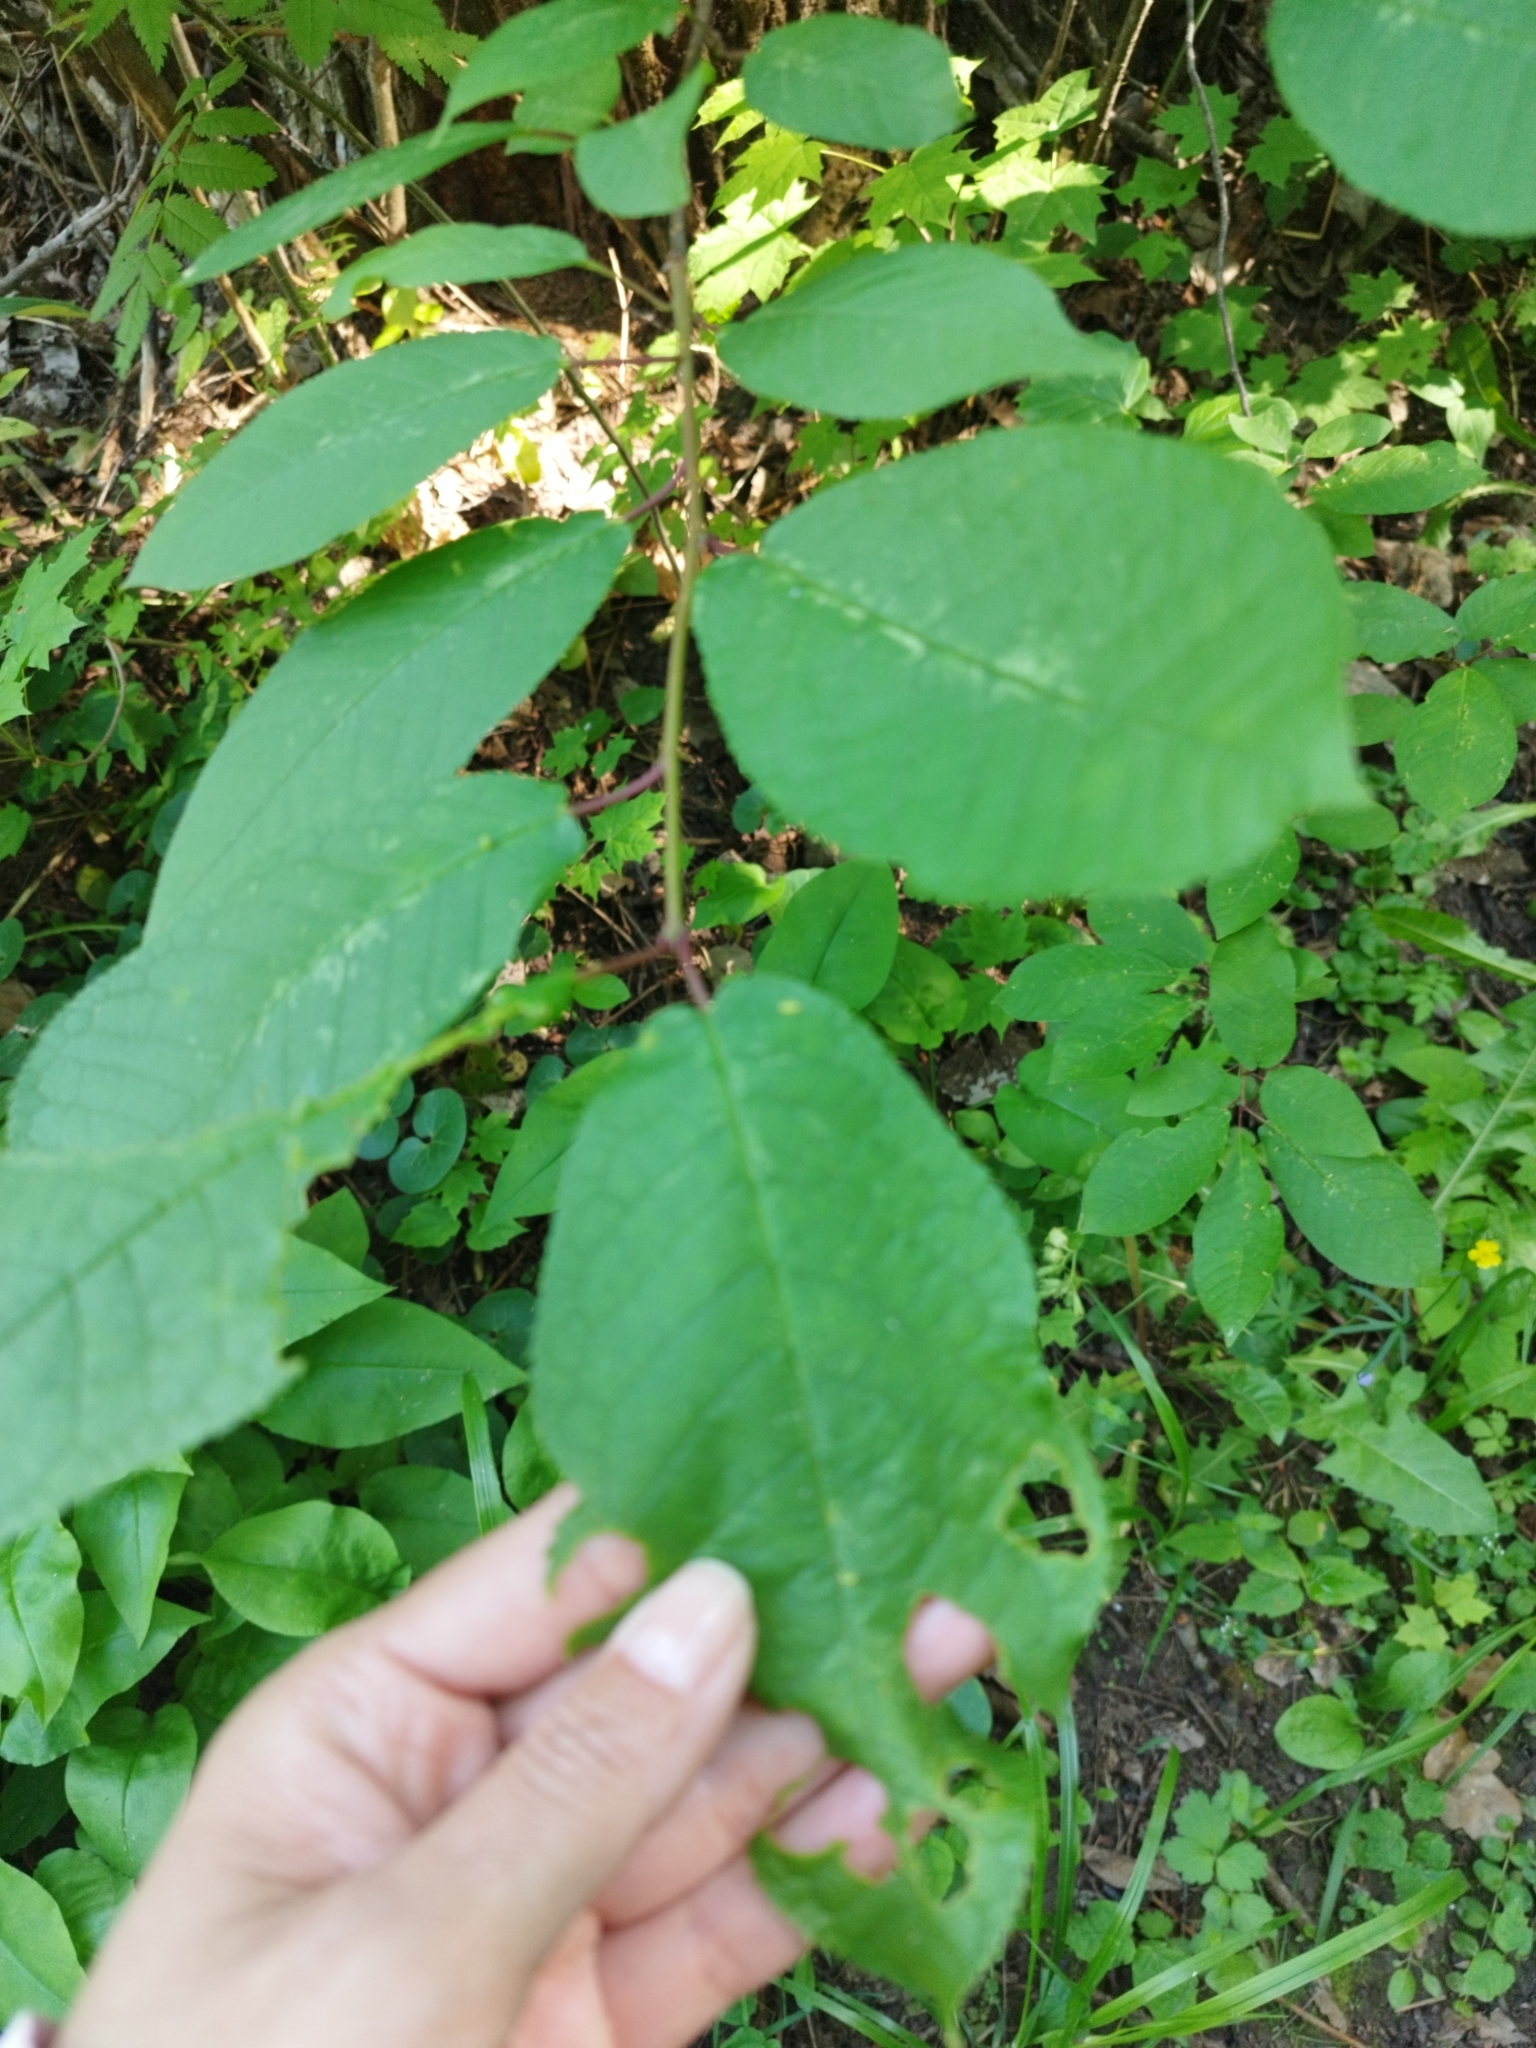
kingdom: Plantae
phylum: Tracheophyta
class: Magnoliopsida
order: Rosales
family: Rosaceae
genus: Prunus
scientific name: Prunus padus
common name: Bird cherry
